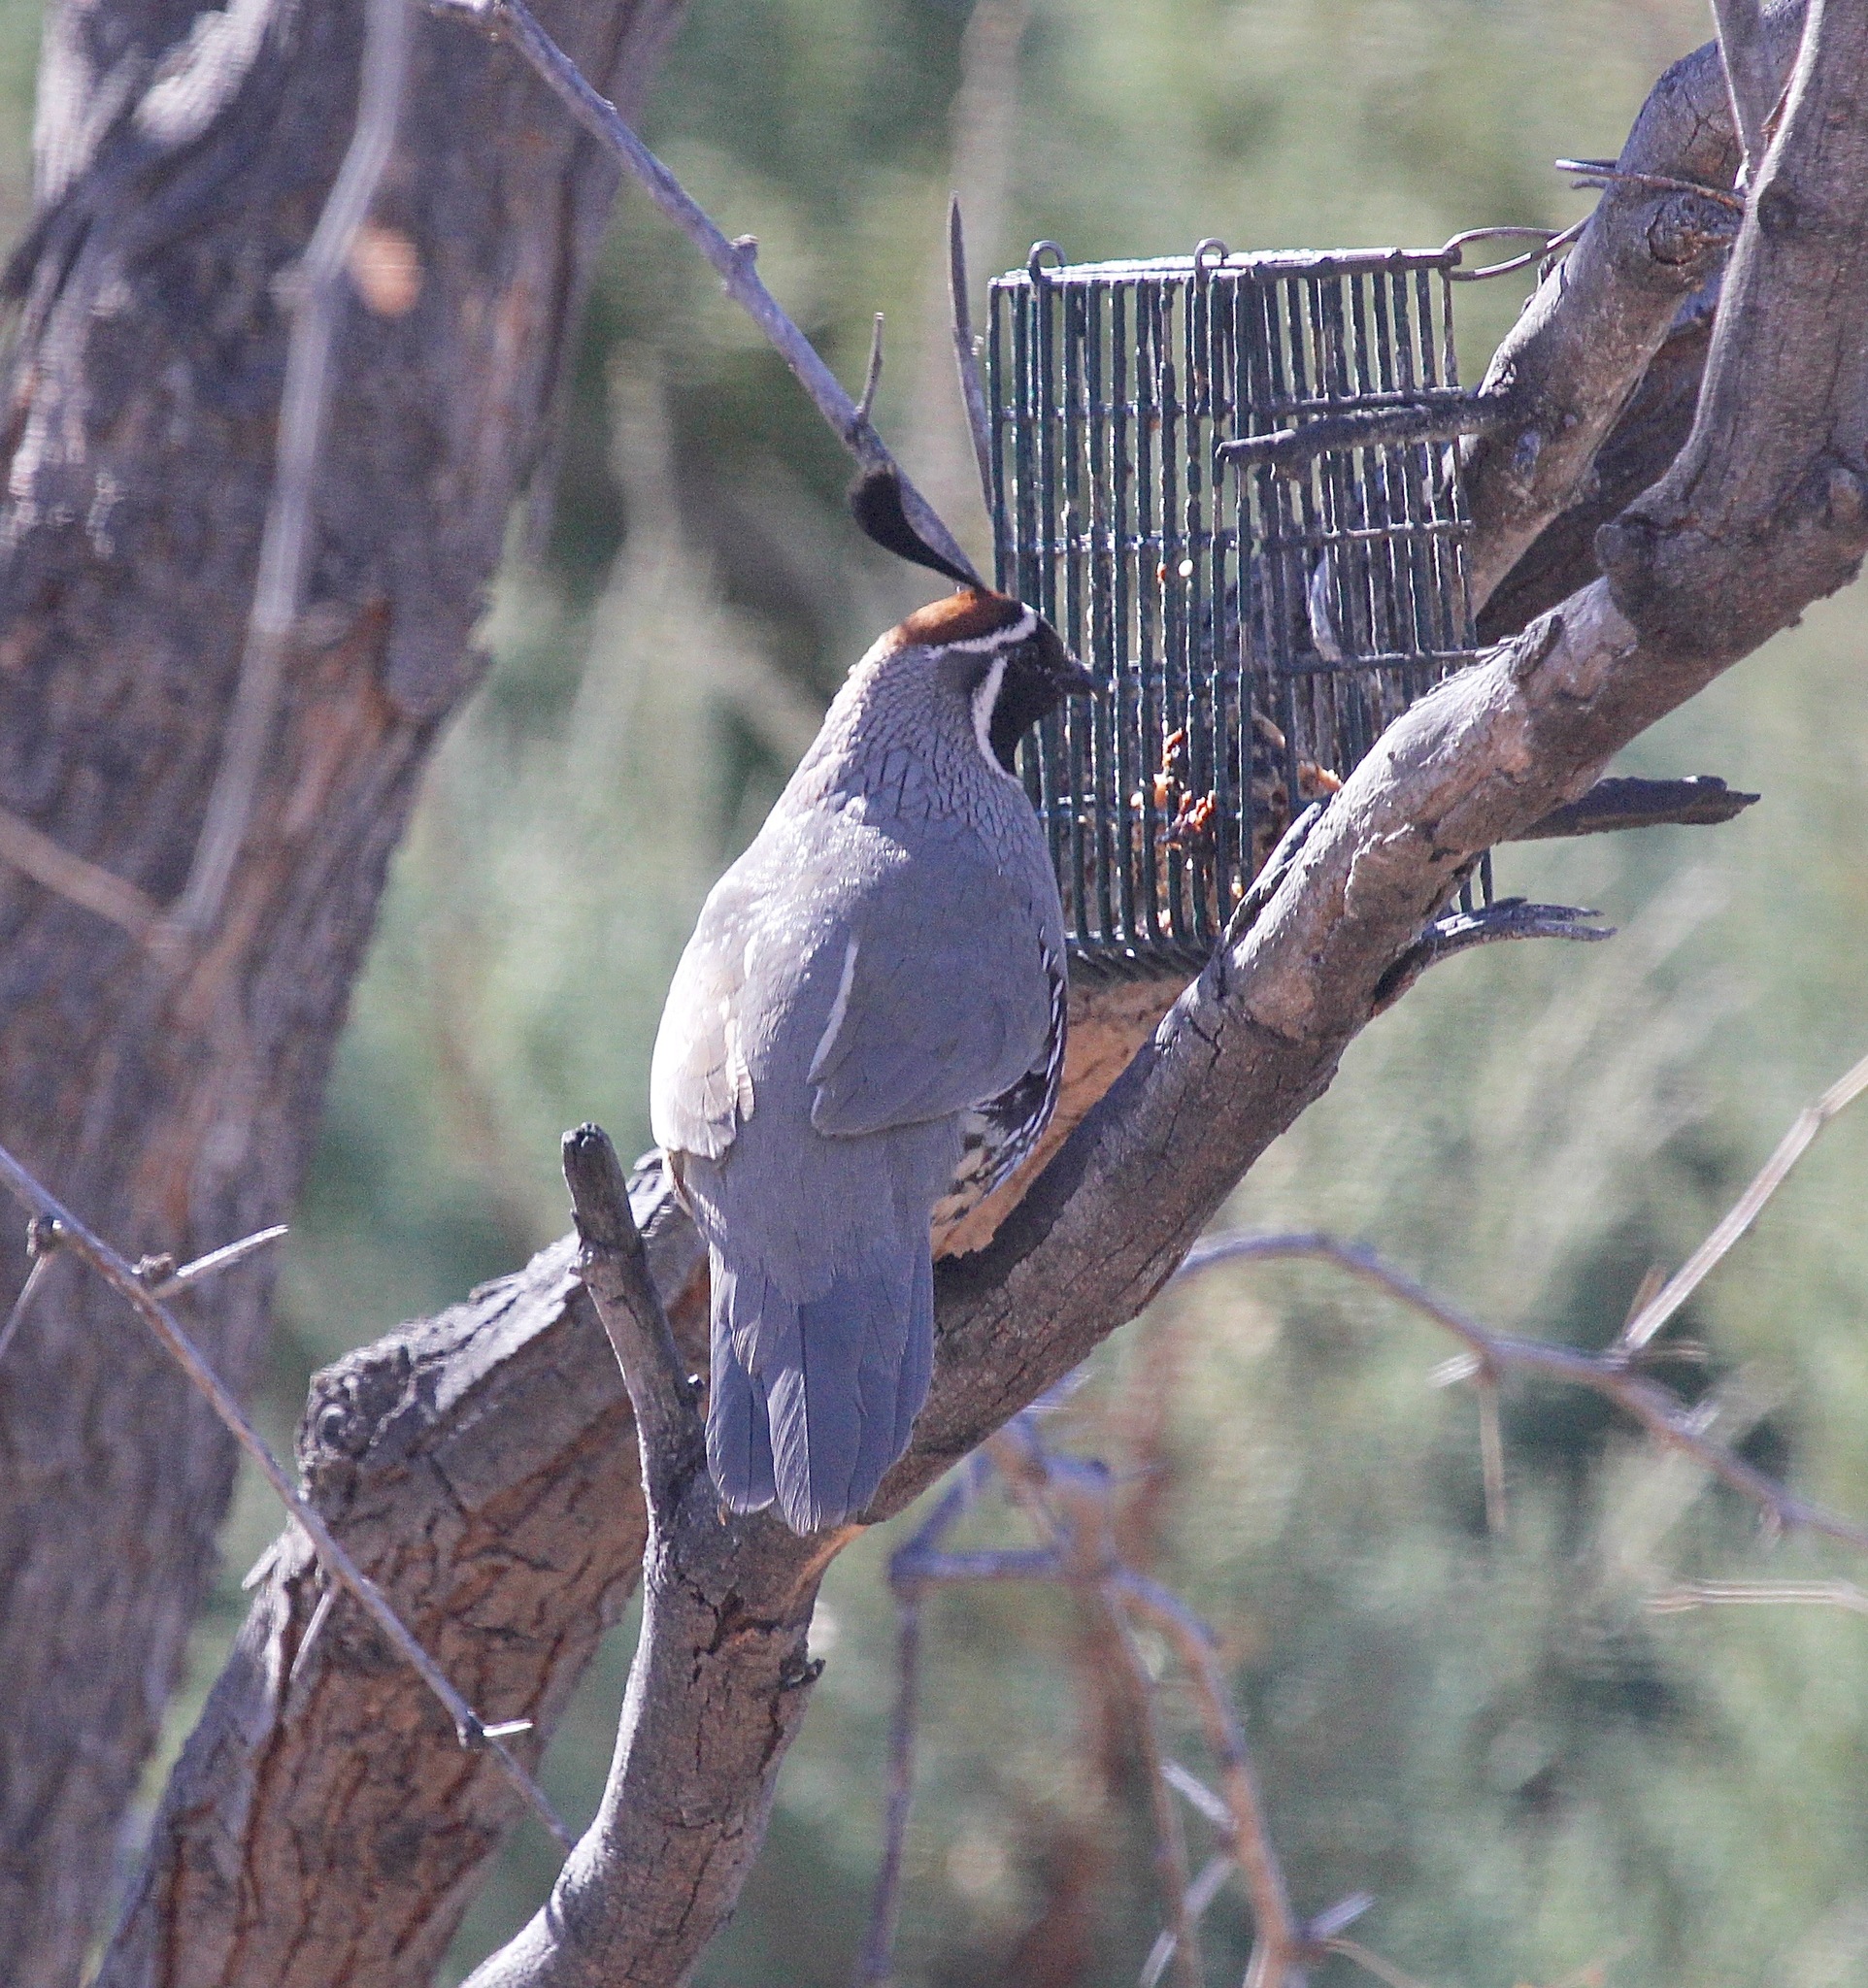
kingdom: Animalia
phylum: Chordata
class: Aves
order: Galliformes
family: Odontophoridae
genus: Callipepla
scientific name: Callipepla gambelii
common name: Gambel's quail
